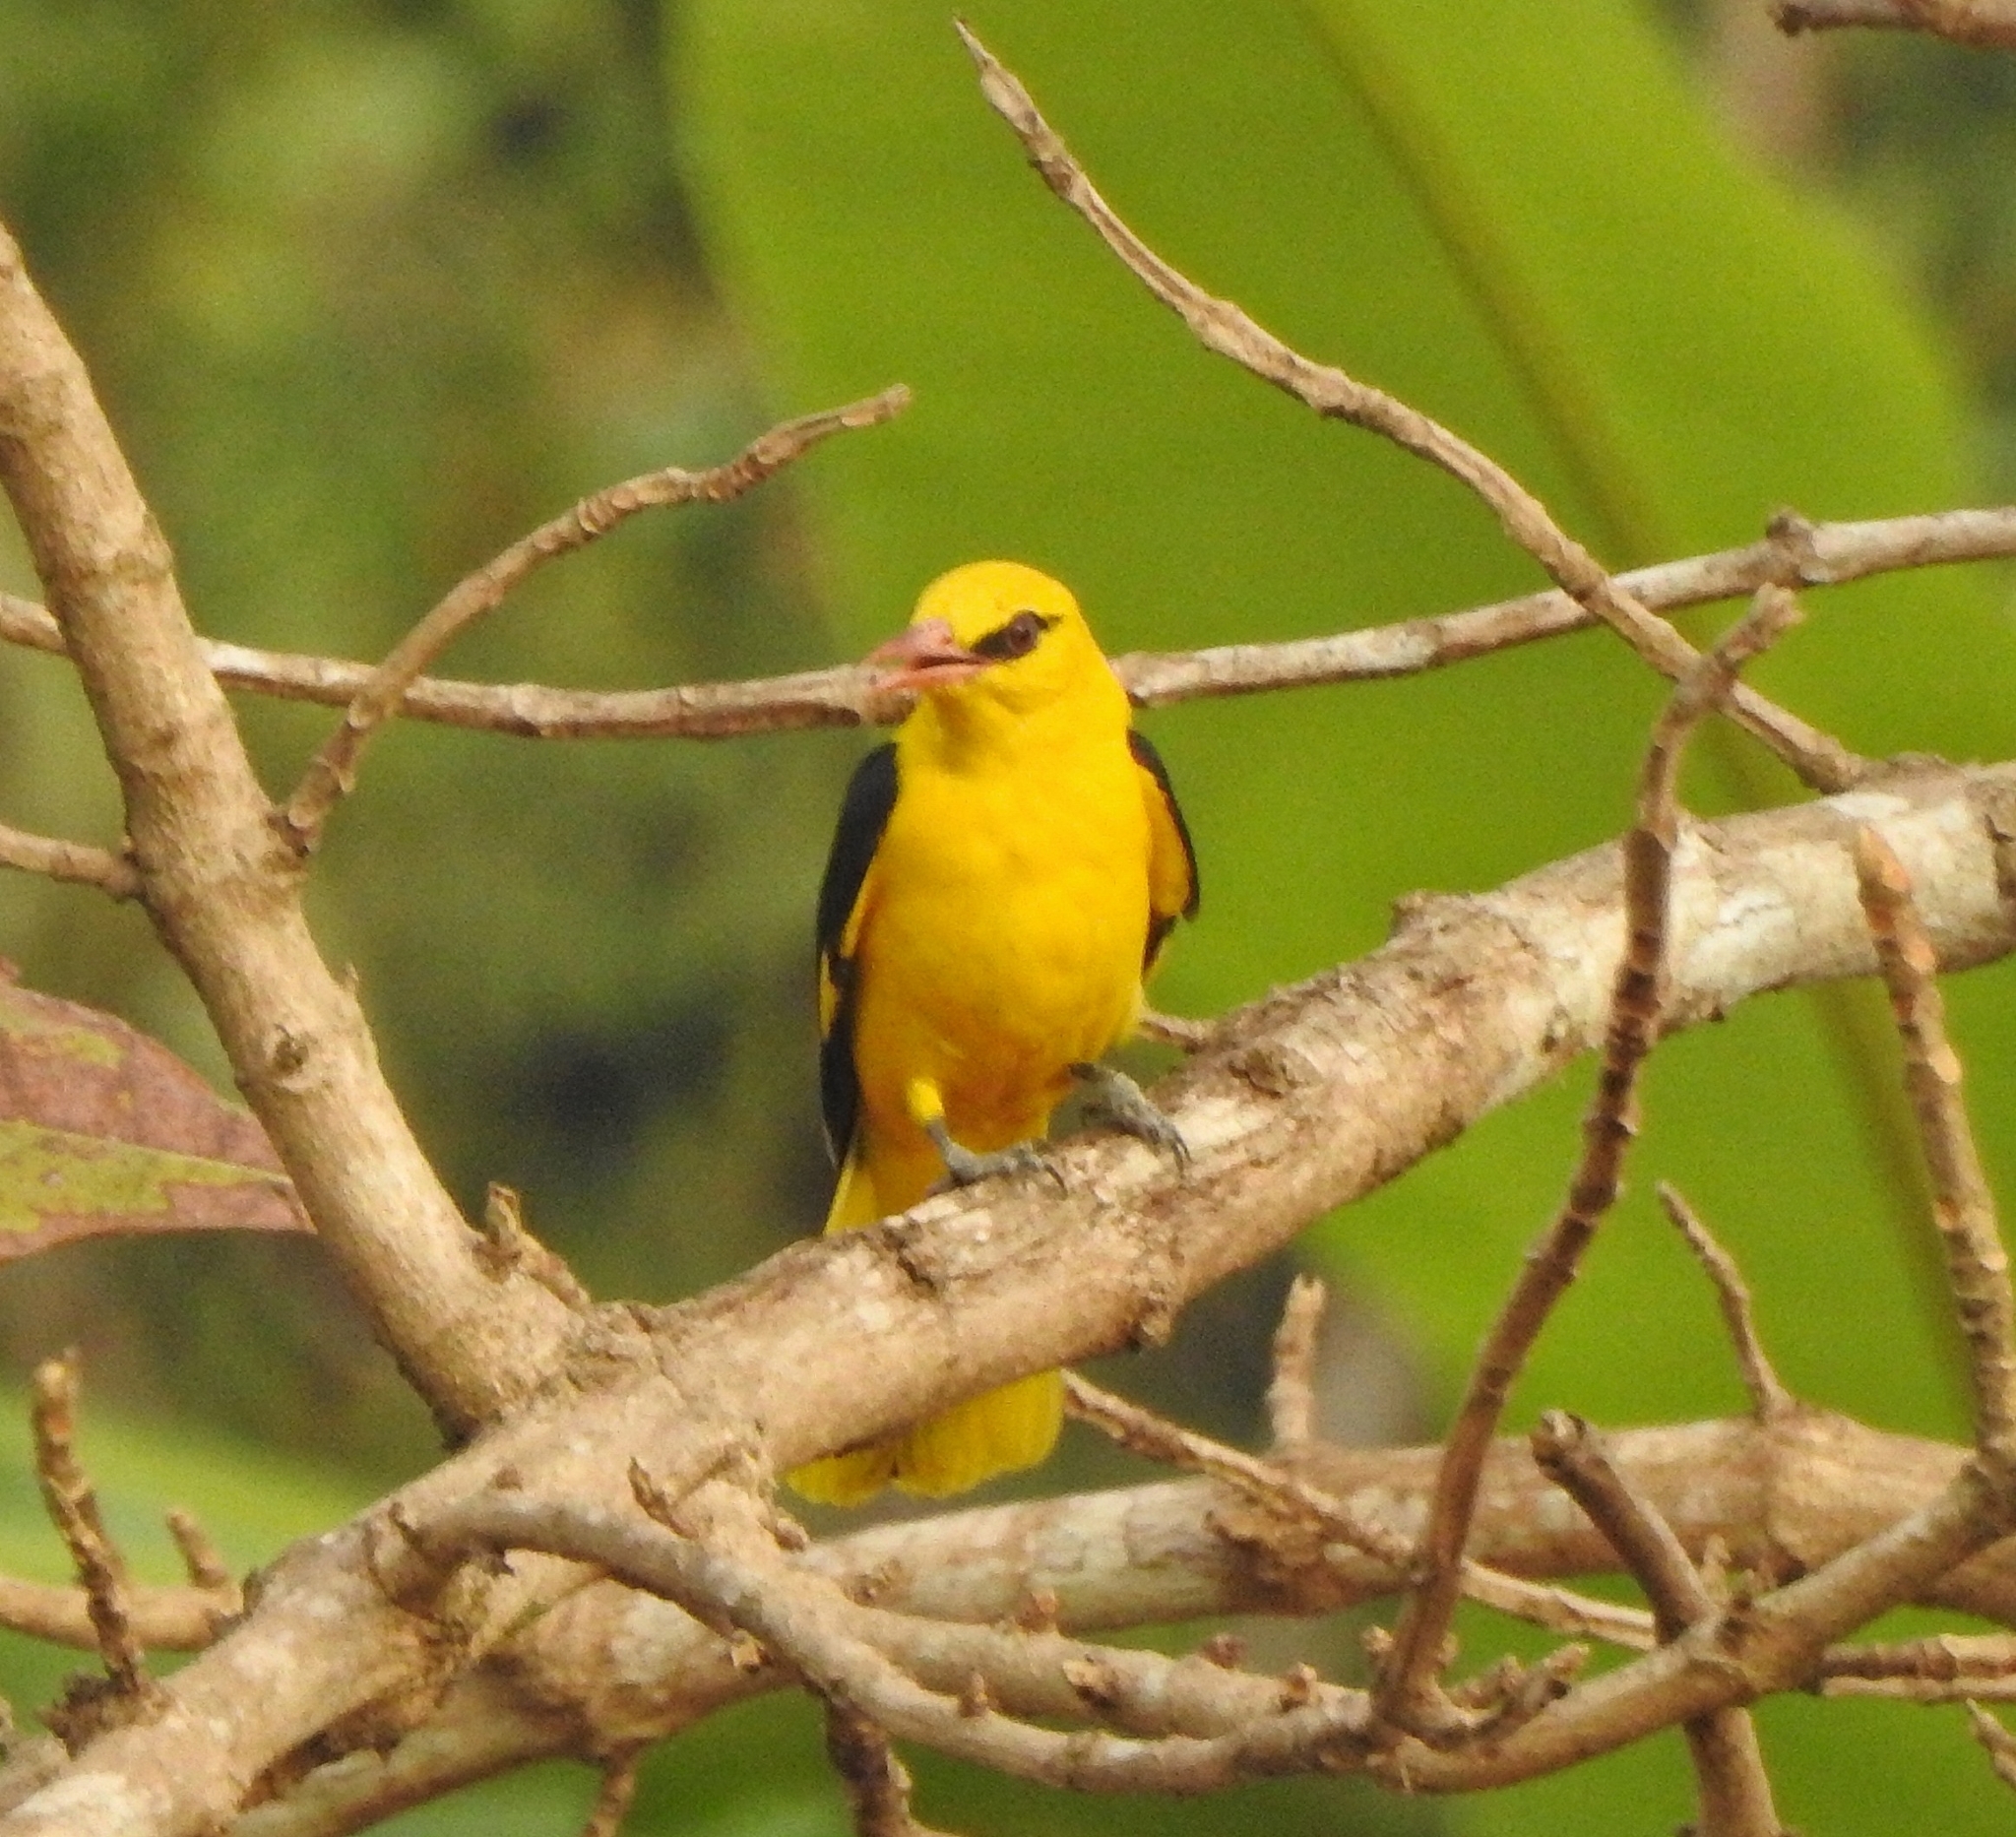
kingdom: Animalia
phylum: Chordata
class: Aves
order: Passeriformes
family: Oriolidae
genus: Oriolus
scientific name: Oriolus kundoo
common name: Indian golden oriole
